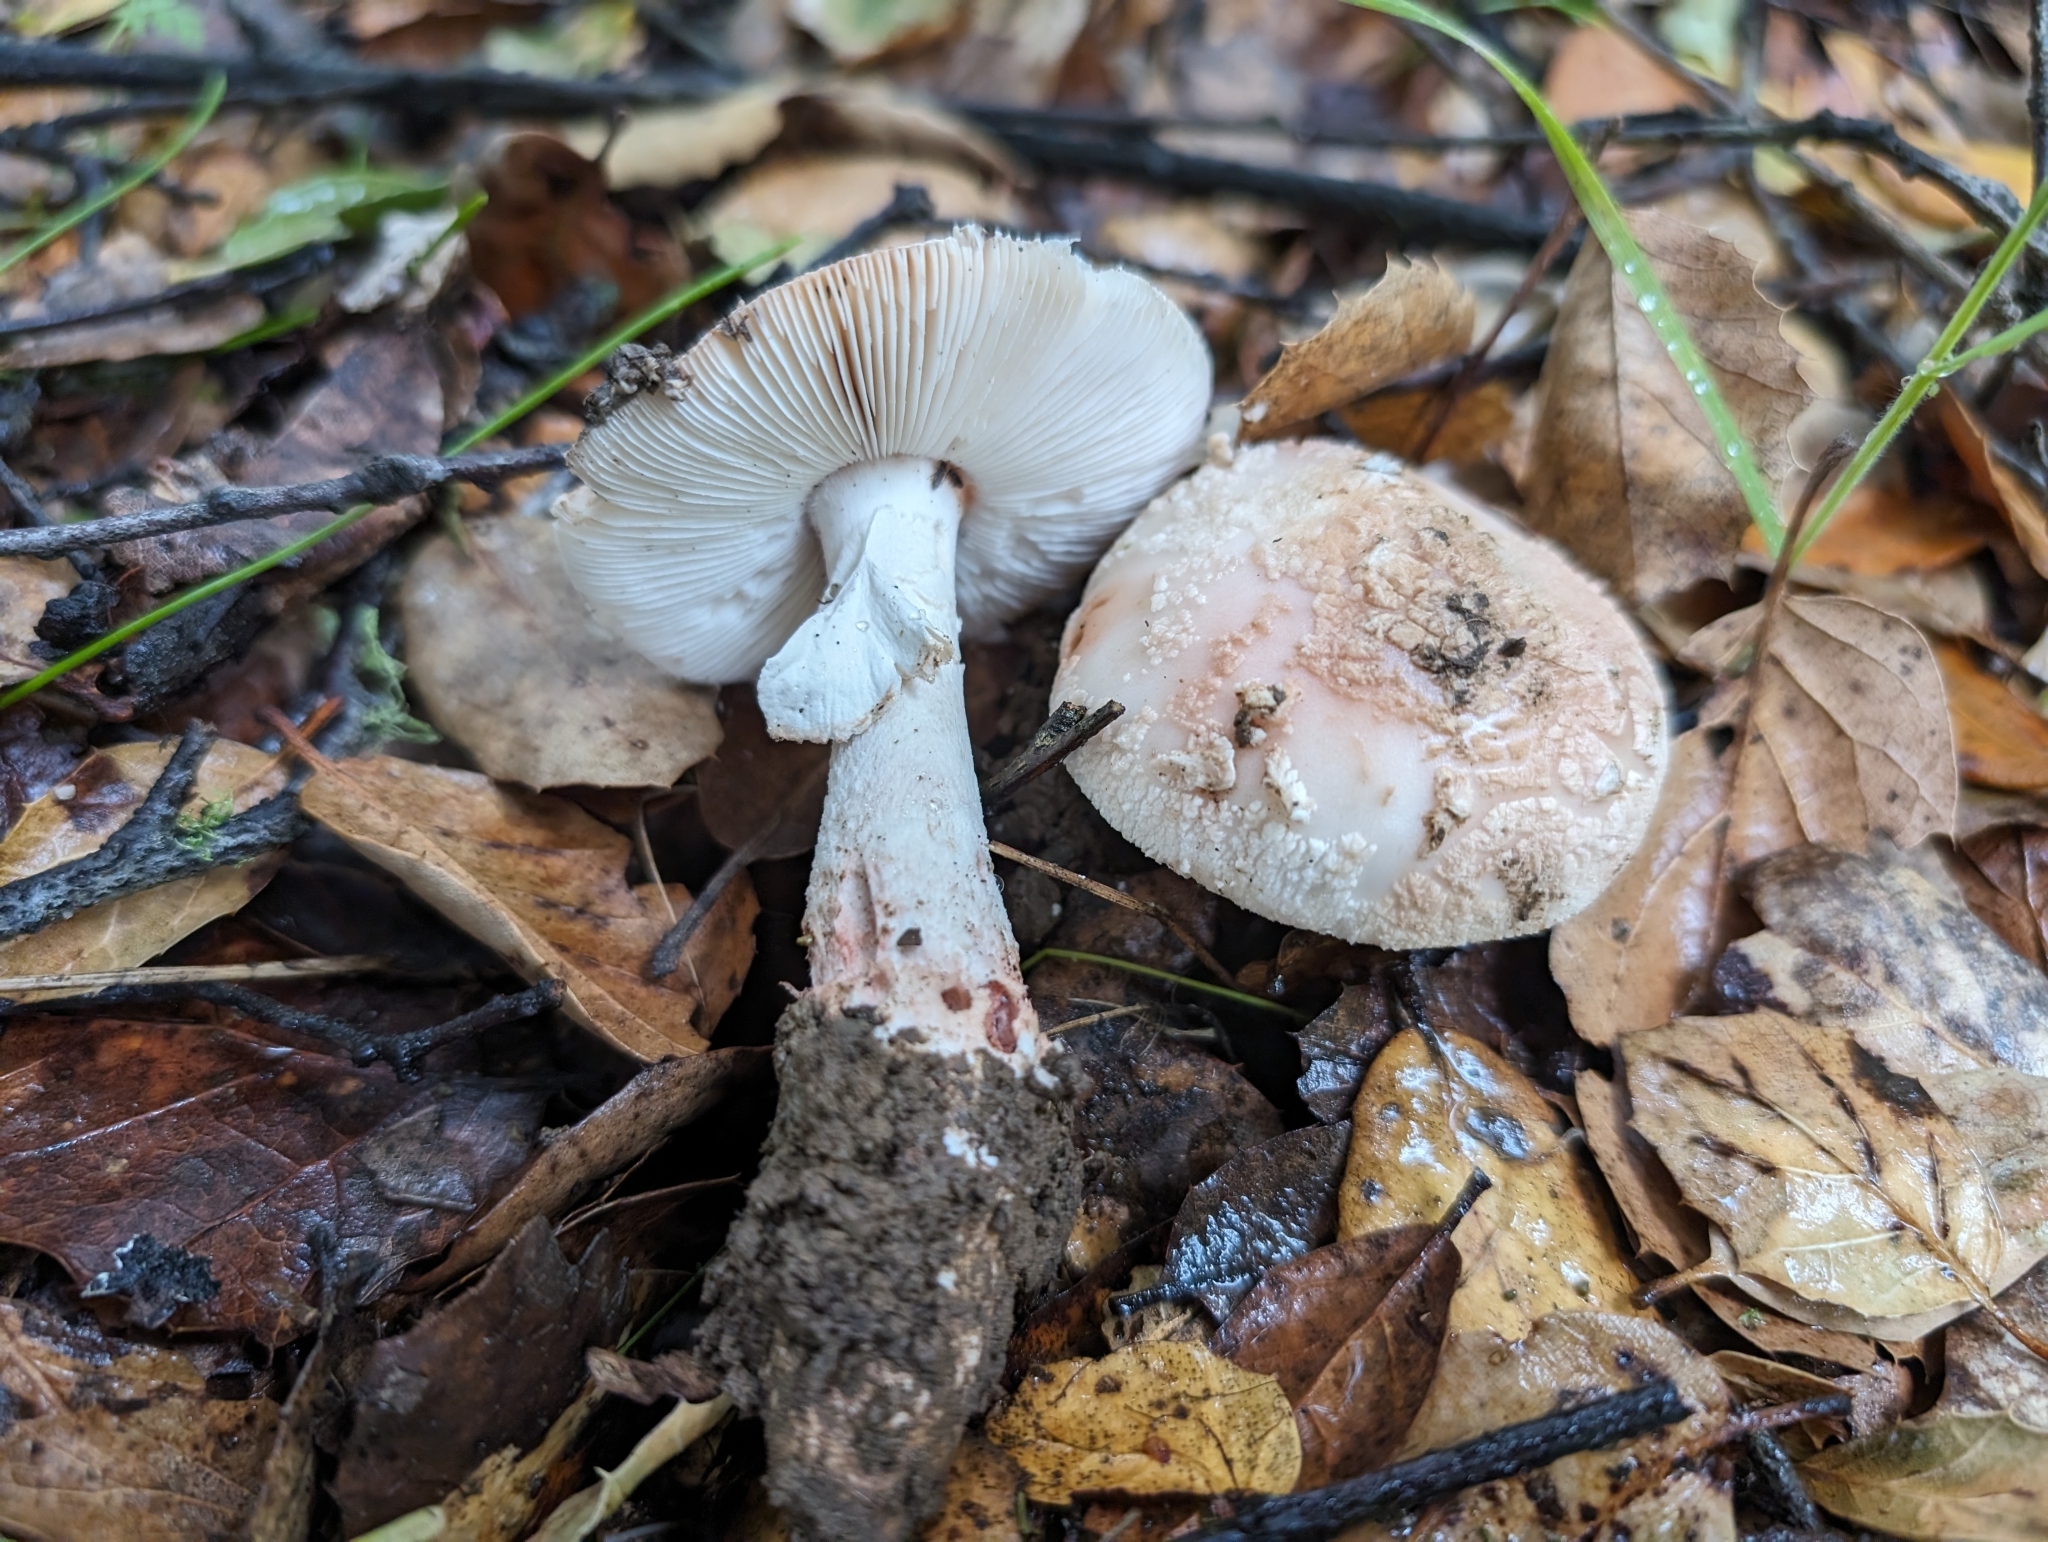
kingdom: Fungi
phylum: Basidiomycota
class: Agaricomycetes
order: Agaricales
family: Amanitaceae
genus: Amanita
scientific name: Amanita novinupta
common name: Blushing bride
